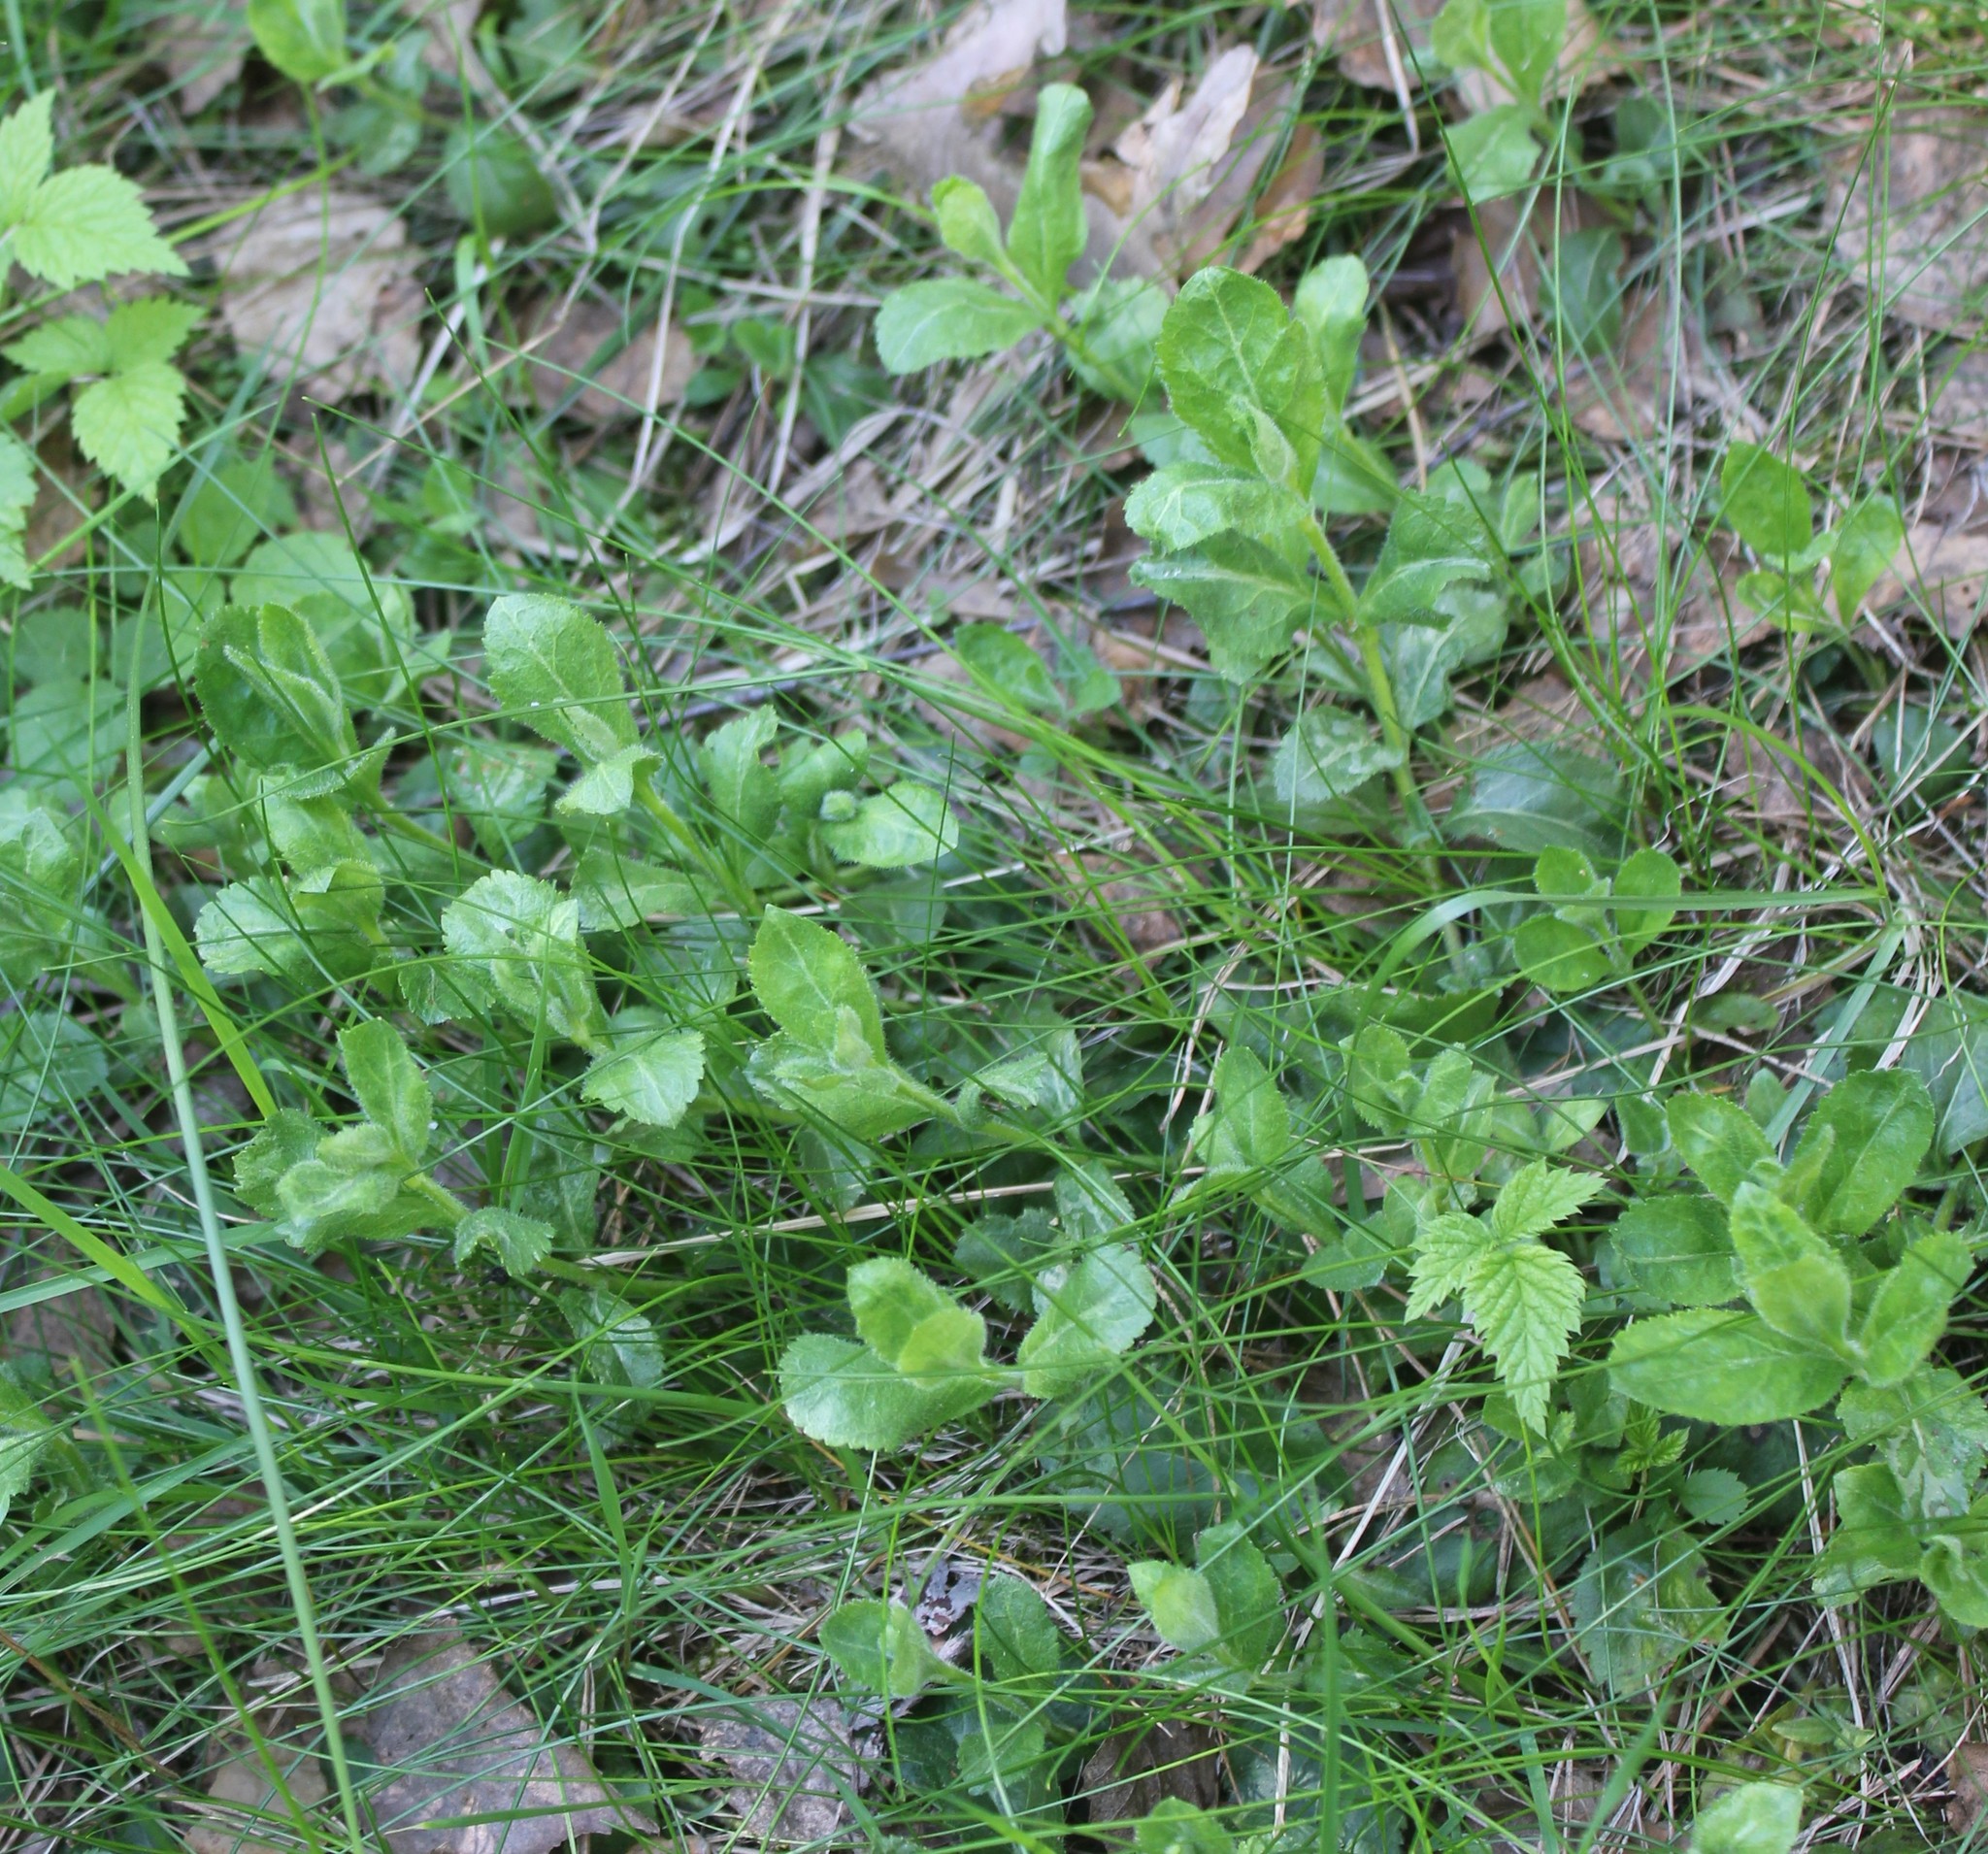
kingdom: Plantae
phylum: Tracheophyta
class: Magnoliopsida
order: Lamiales
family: Plantaginaceae
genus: Veronica
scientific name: Veronica officinalis
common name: Common speedwell
